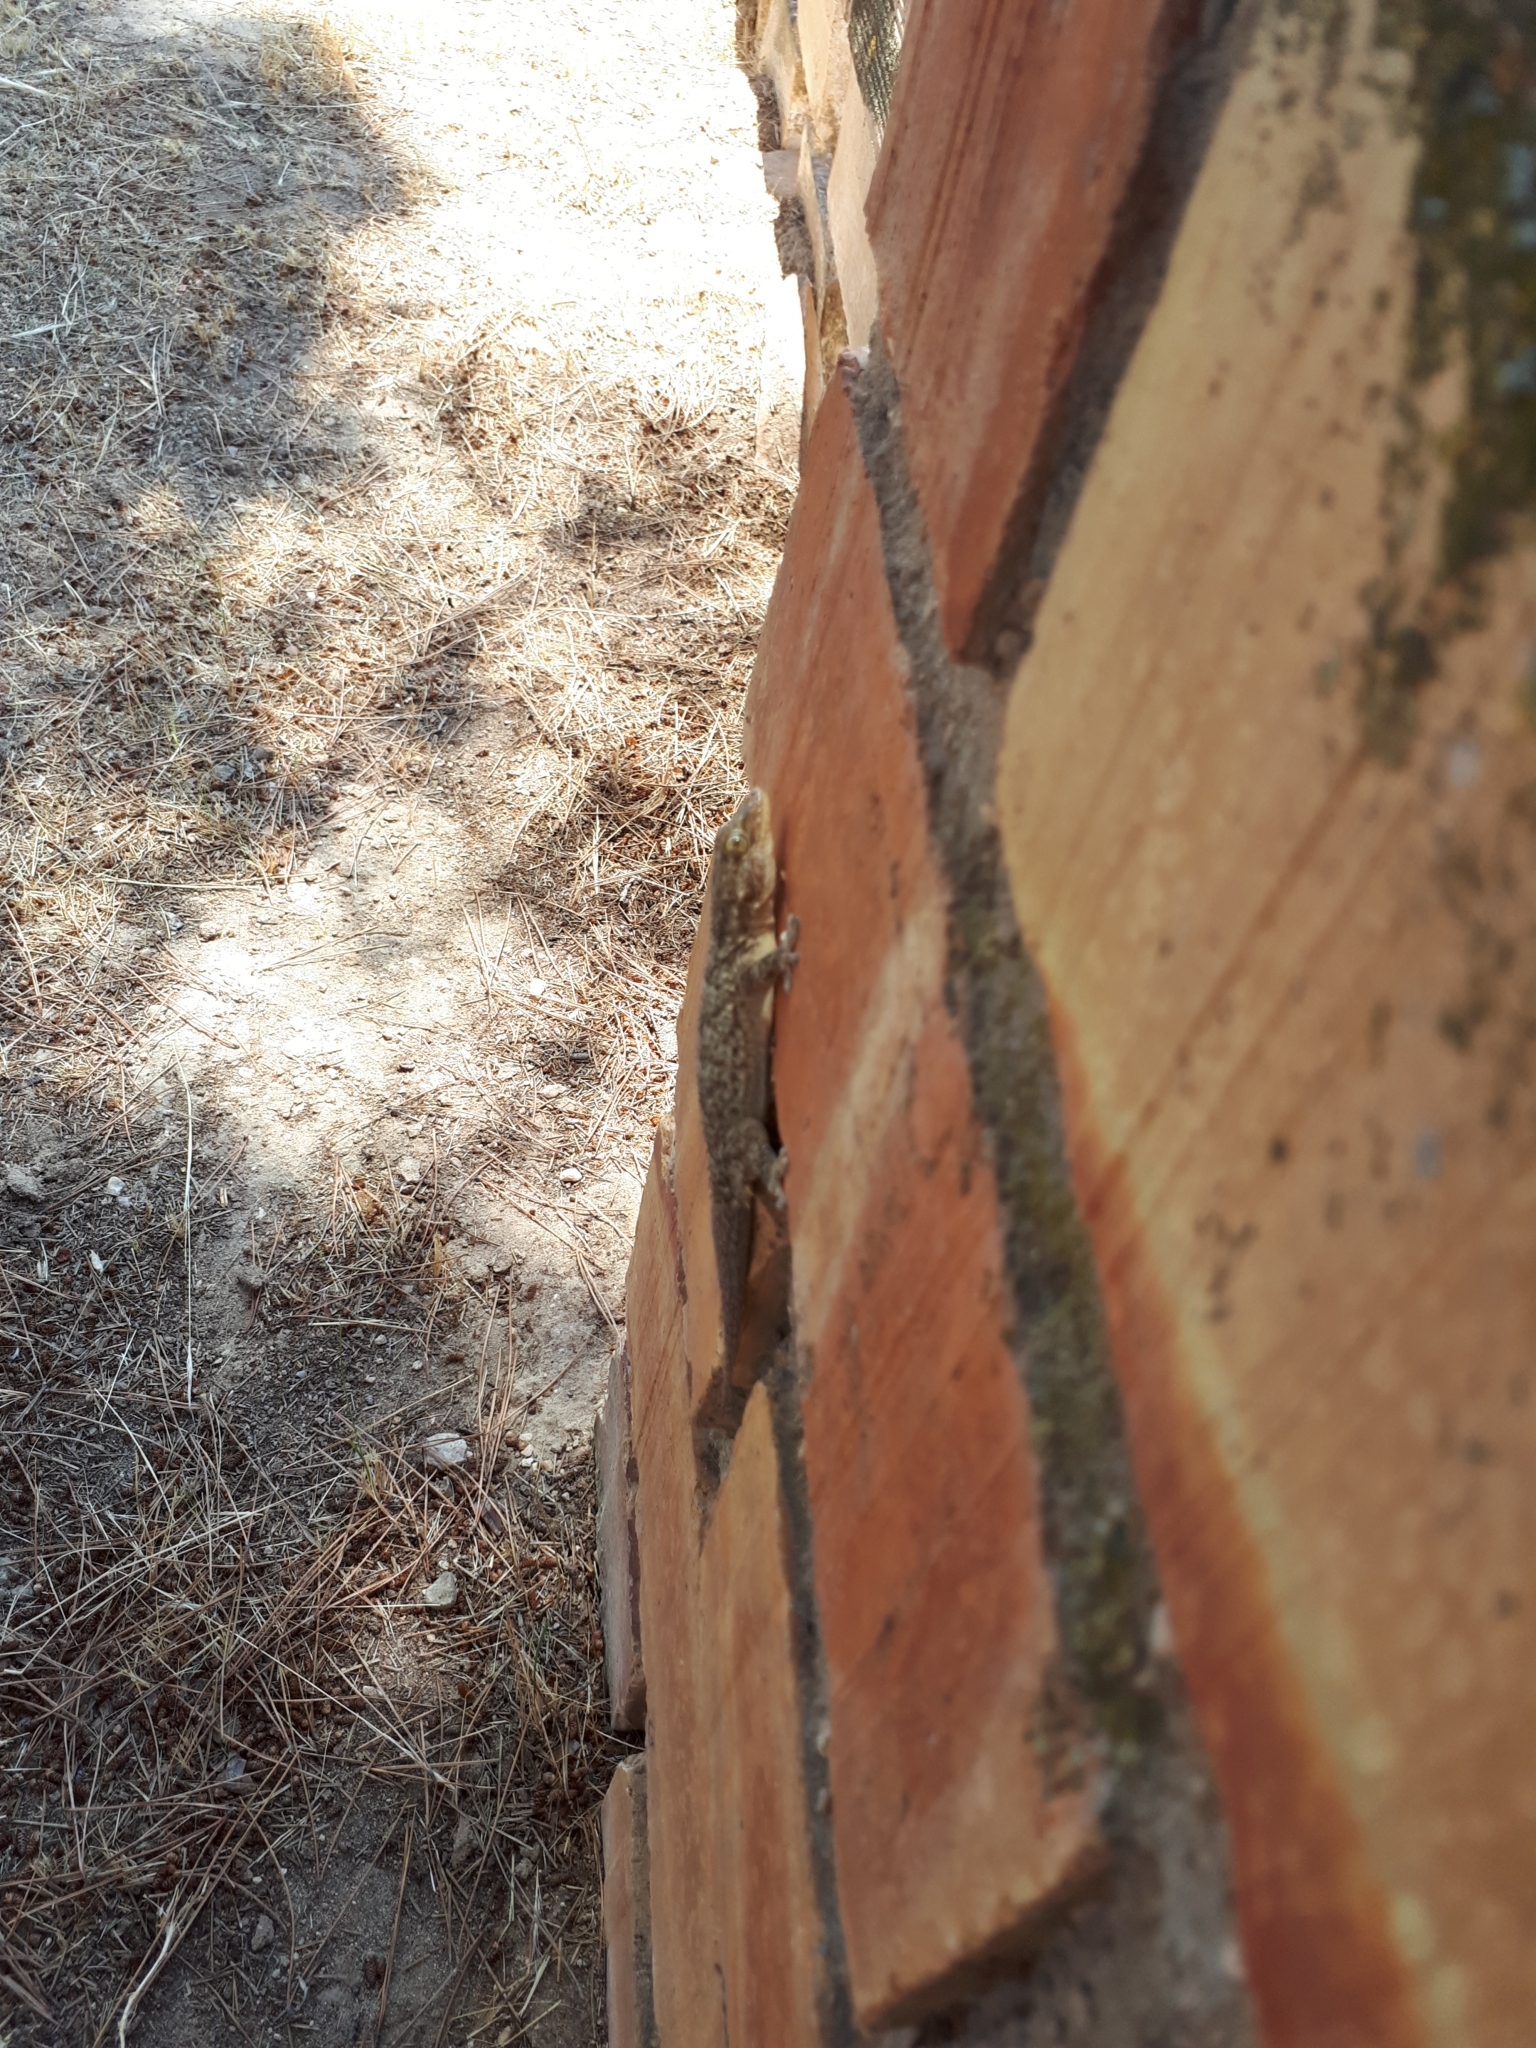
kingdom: Animalia
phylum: Chordata
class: Squamata
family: Phyllodactylidae
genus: Tarentola
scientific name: Tarentola mauritanica
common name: Moorish gecko
